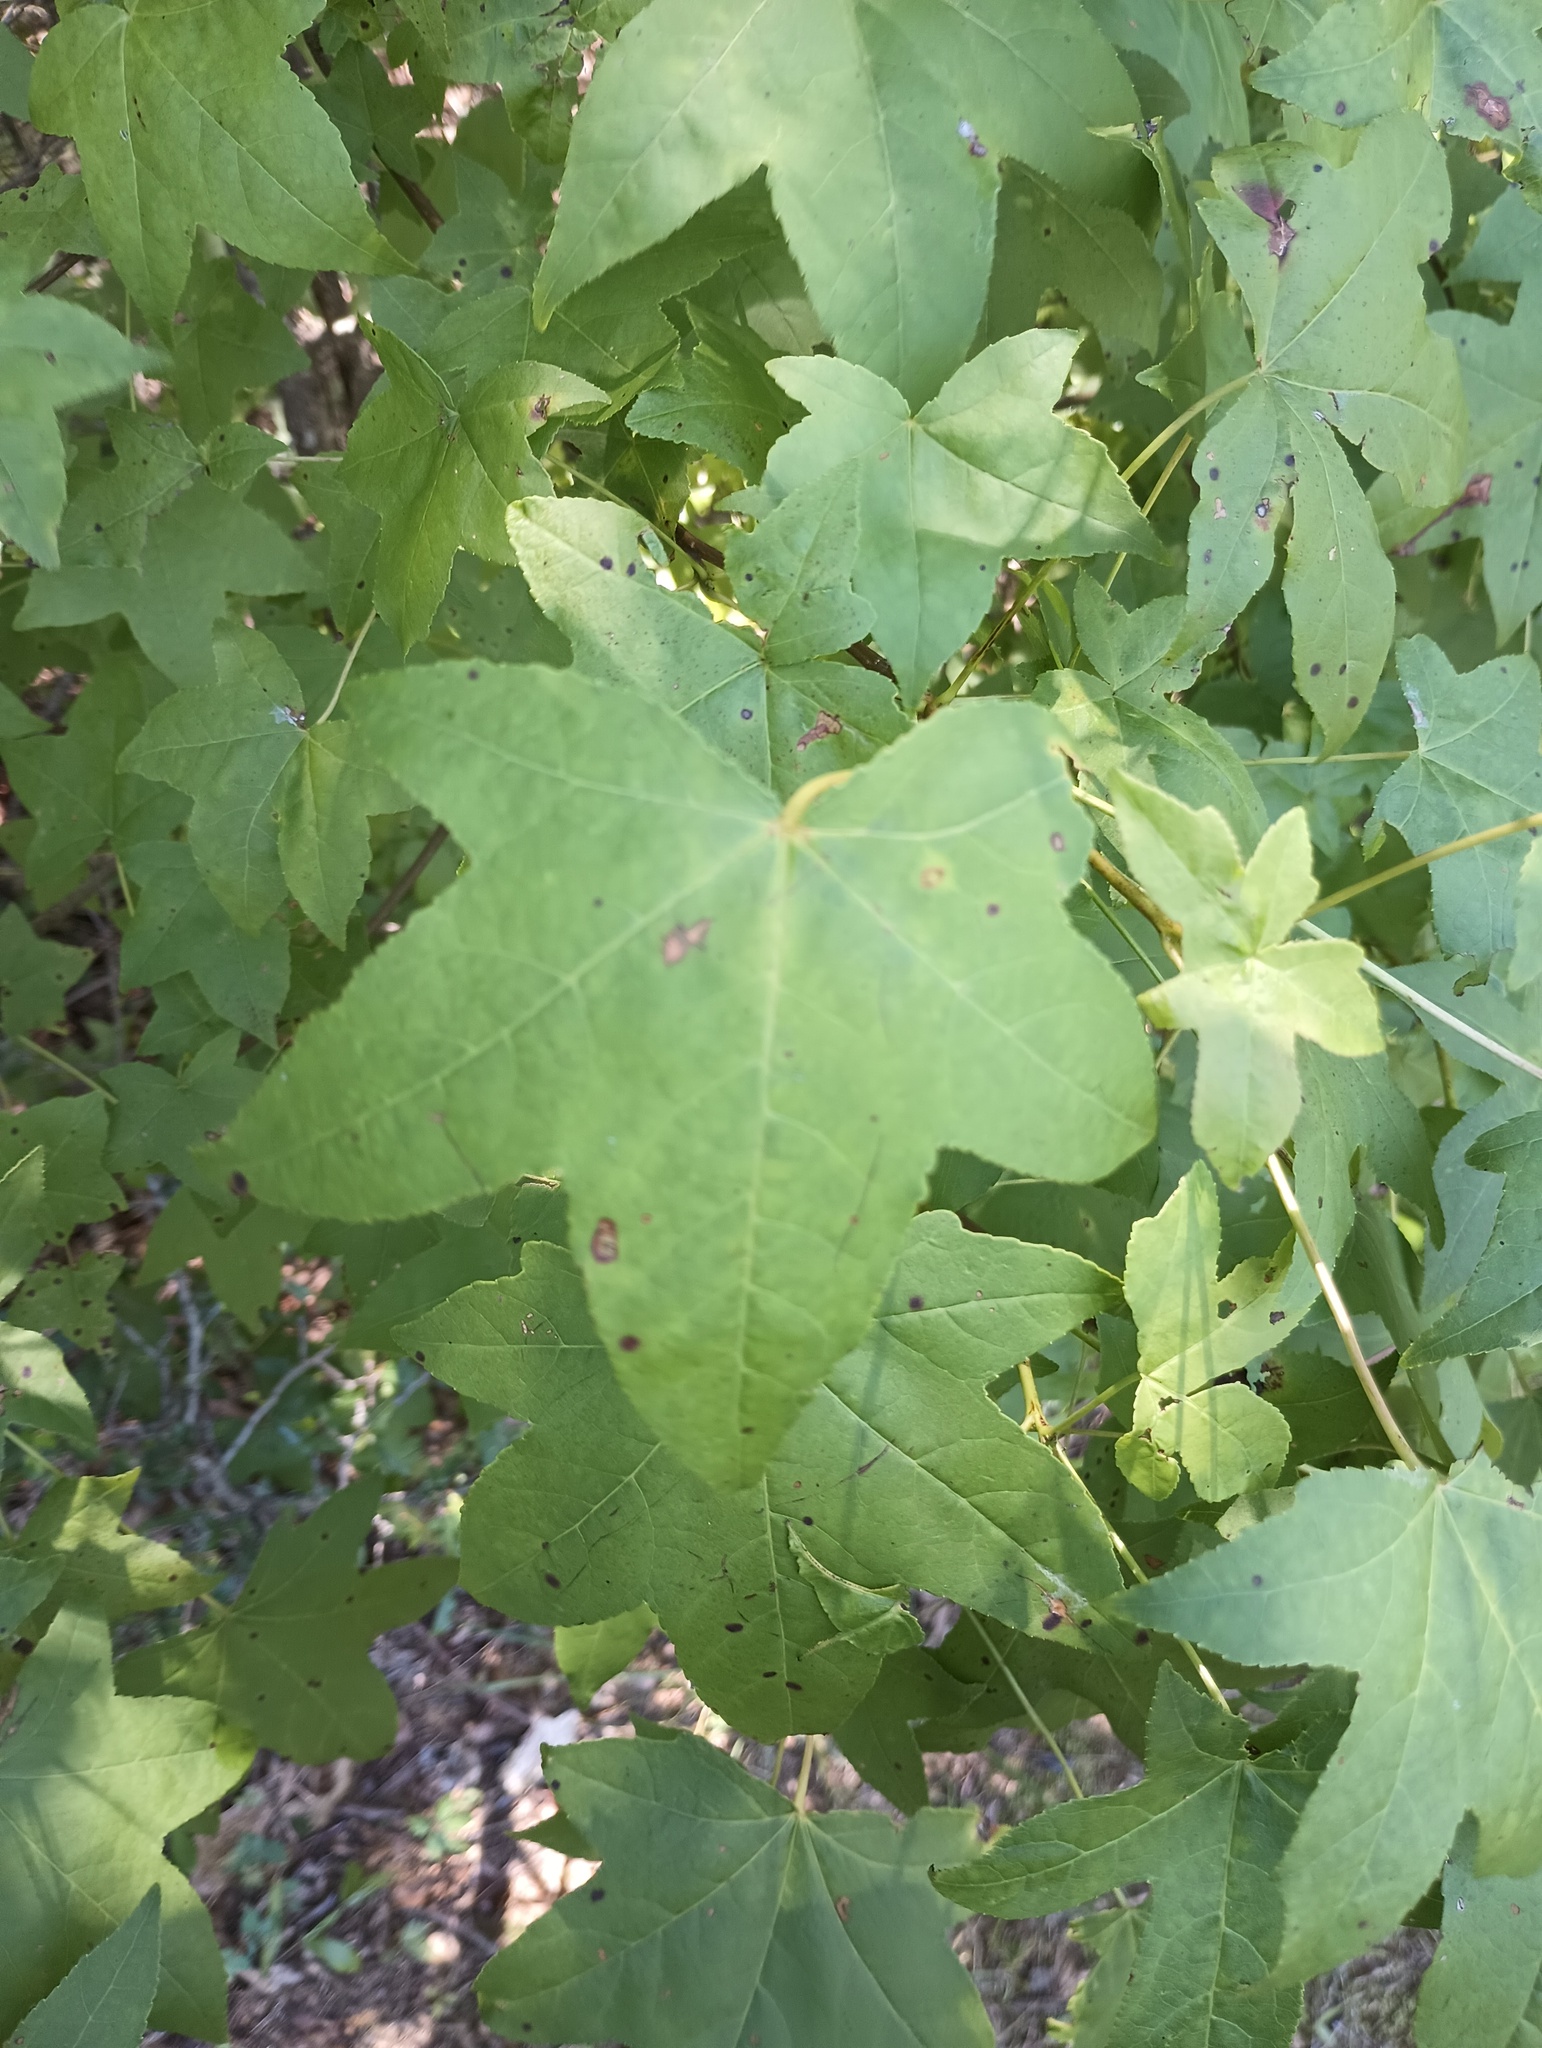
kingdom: Plantae
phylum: Tracheophyta
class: Magnoliopsida
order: Saxifragales
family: Altingiaceae
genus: Liquidambar
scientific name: Liquidambar styraciflua
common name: Sweet gum
